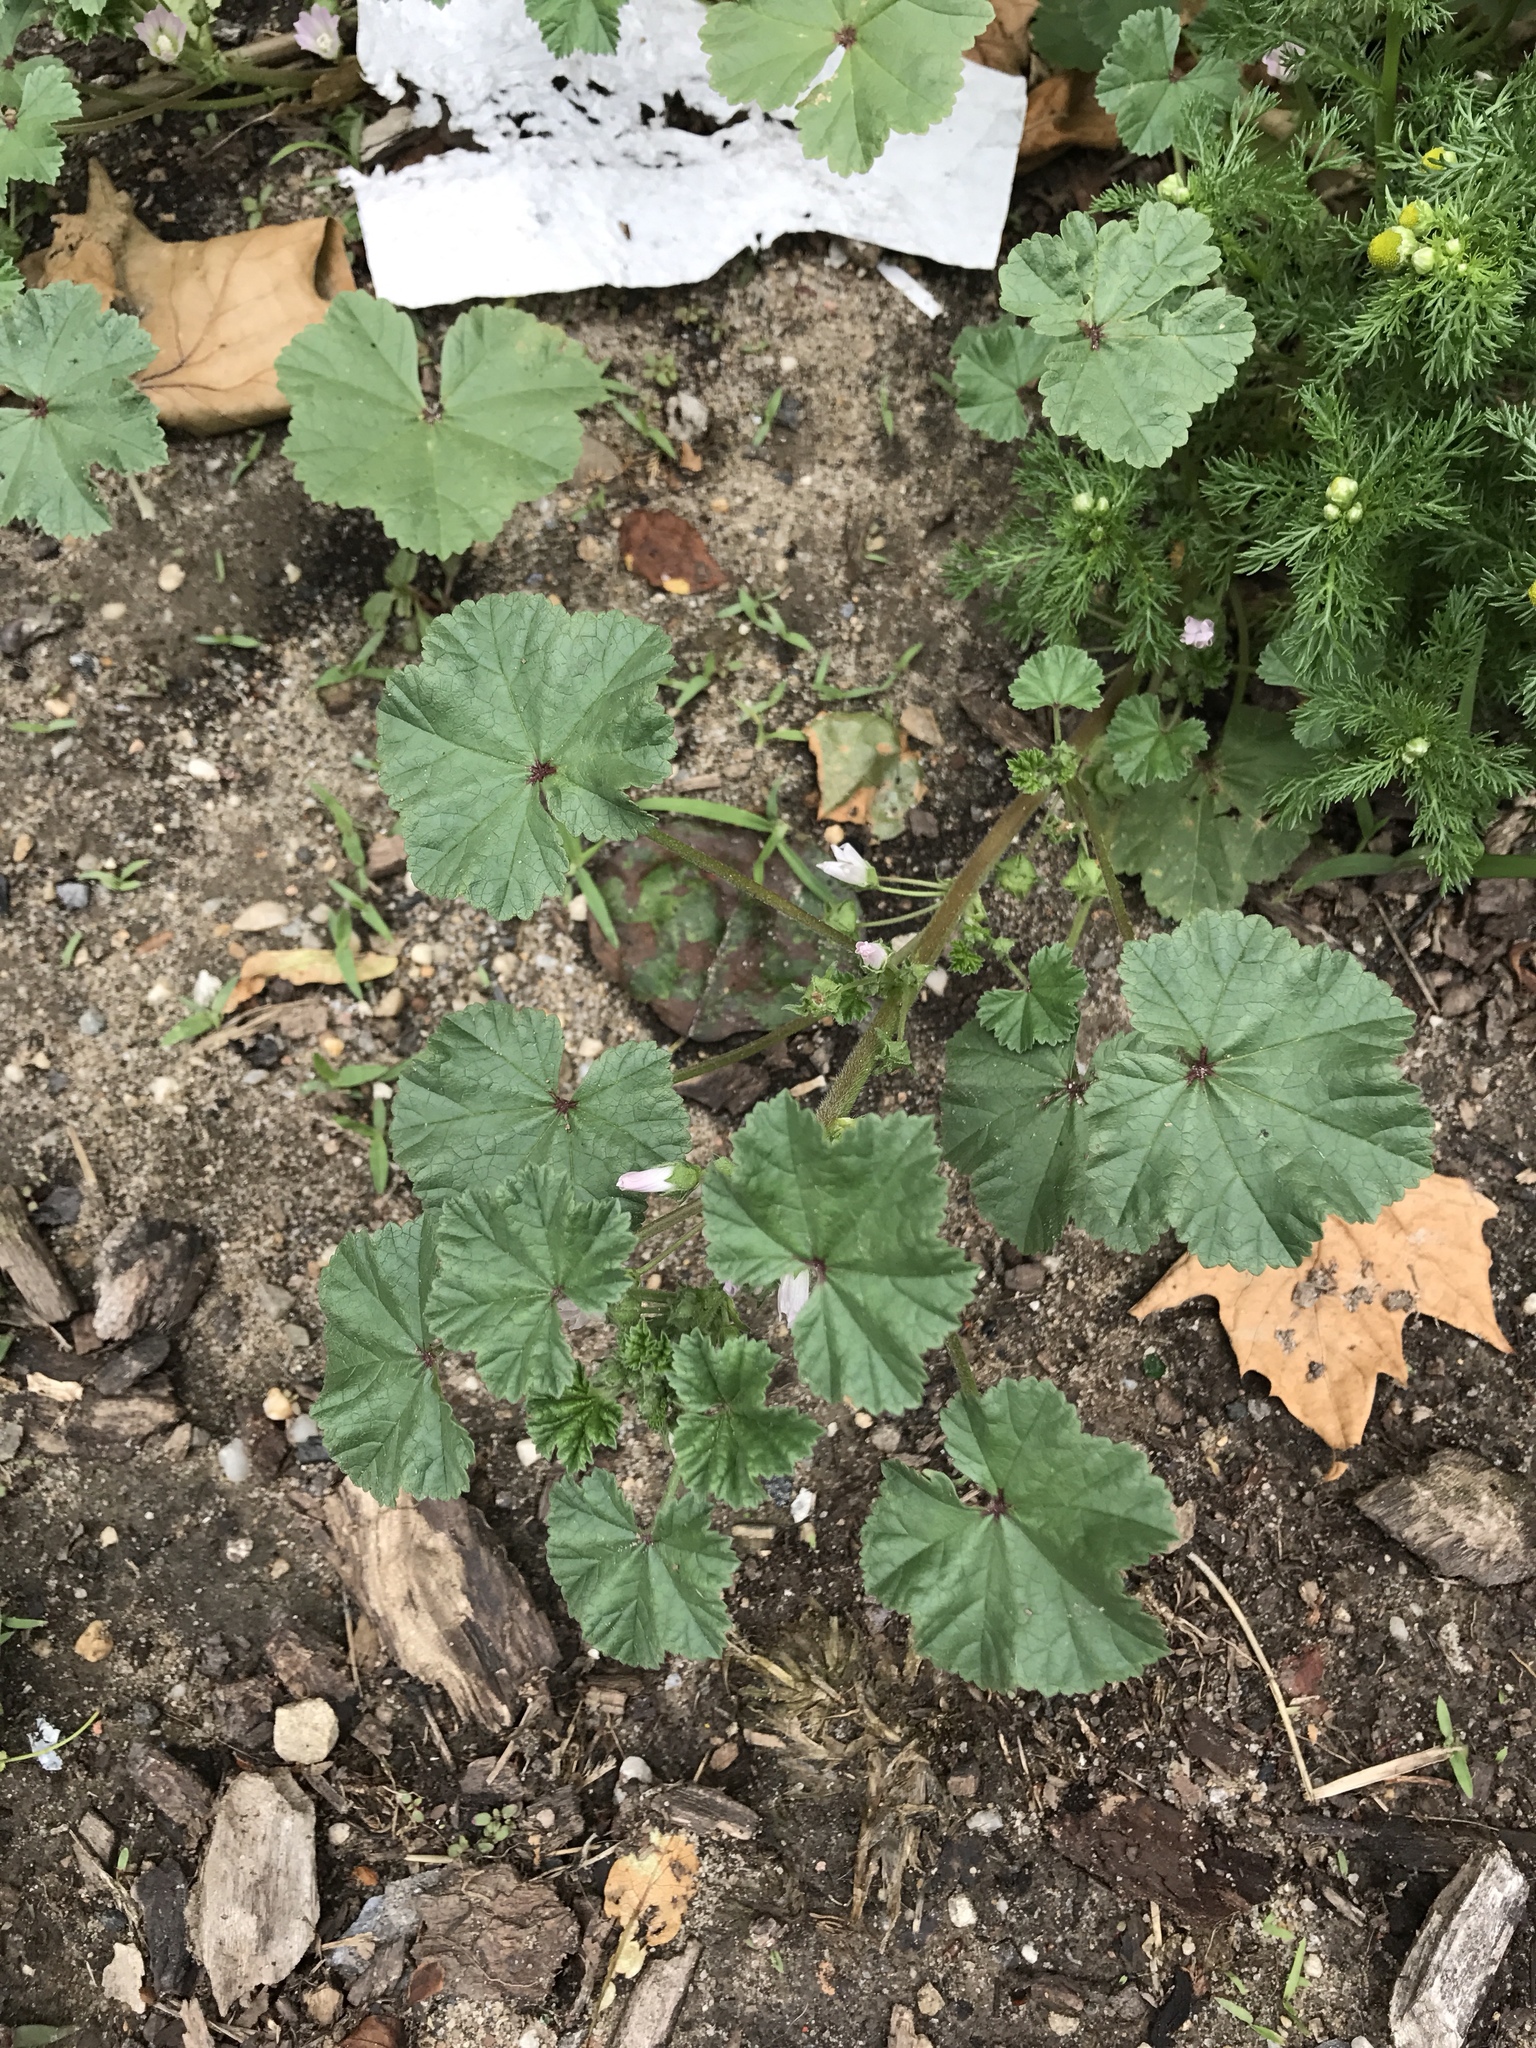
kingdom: Plantae
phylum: Tracheophyta
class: Magnoliopsida
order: Malvales
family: Malvaceae
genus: Malva
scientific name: Malva neglecta
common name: Common mallow
